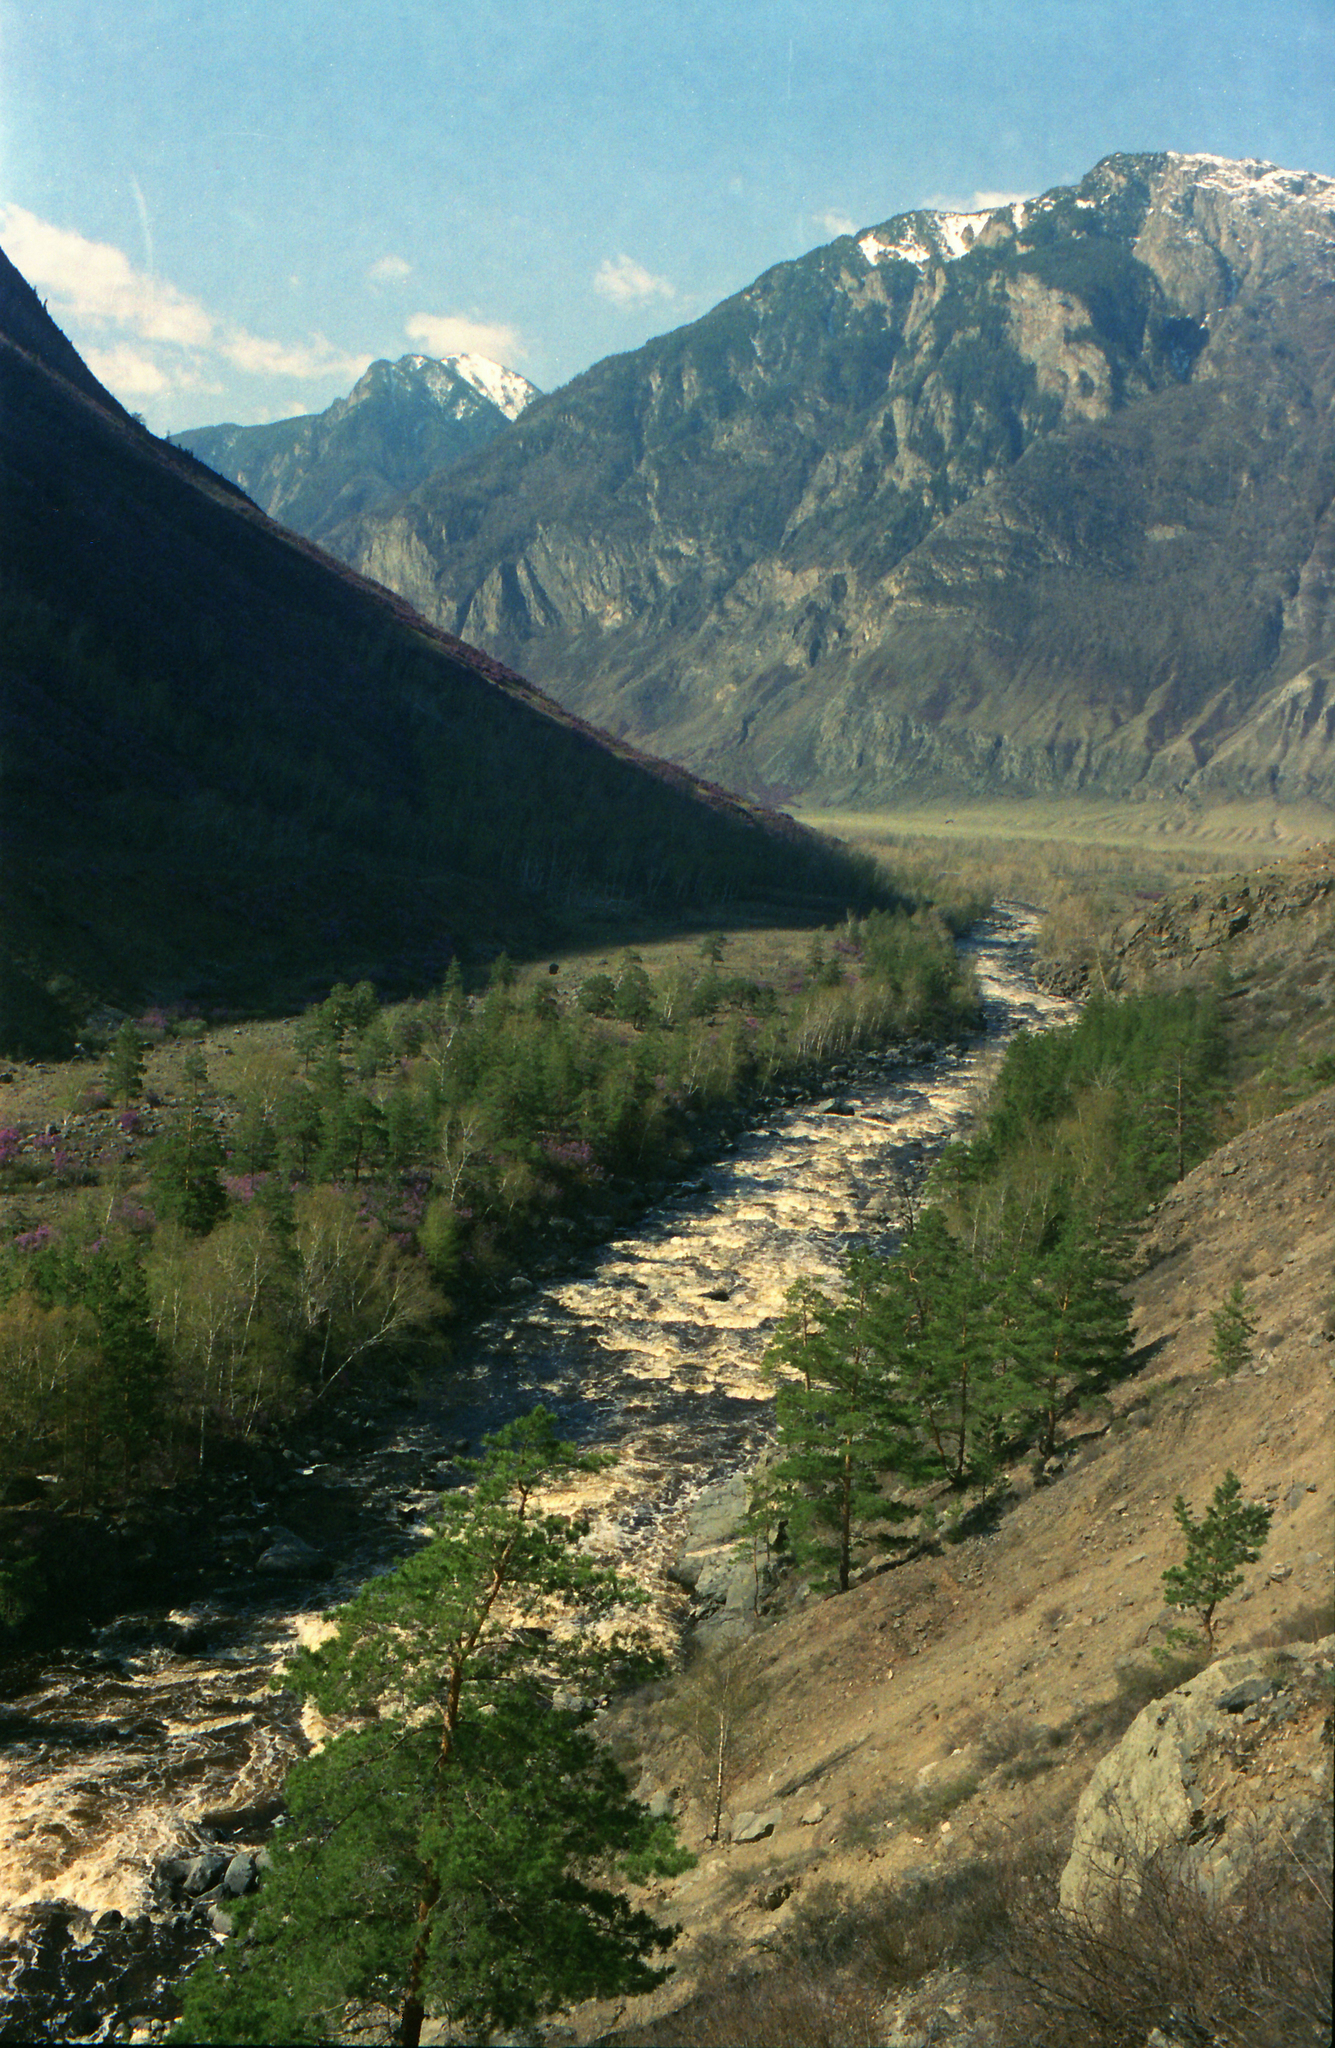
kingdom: Plantae
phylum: Tracheophyta
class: Pinopsida
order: Pinales
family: Pinaceae
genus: Pinus
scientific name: Pinus sylvestris
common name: Scots pine
